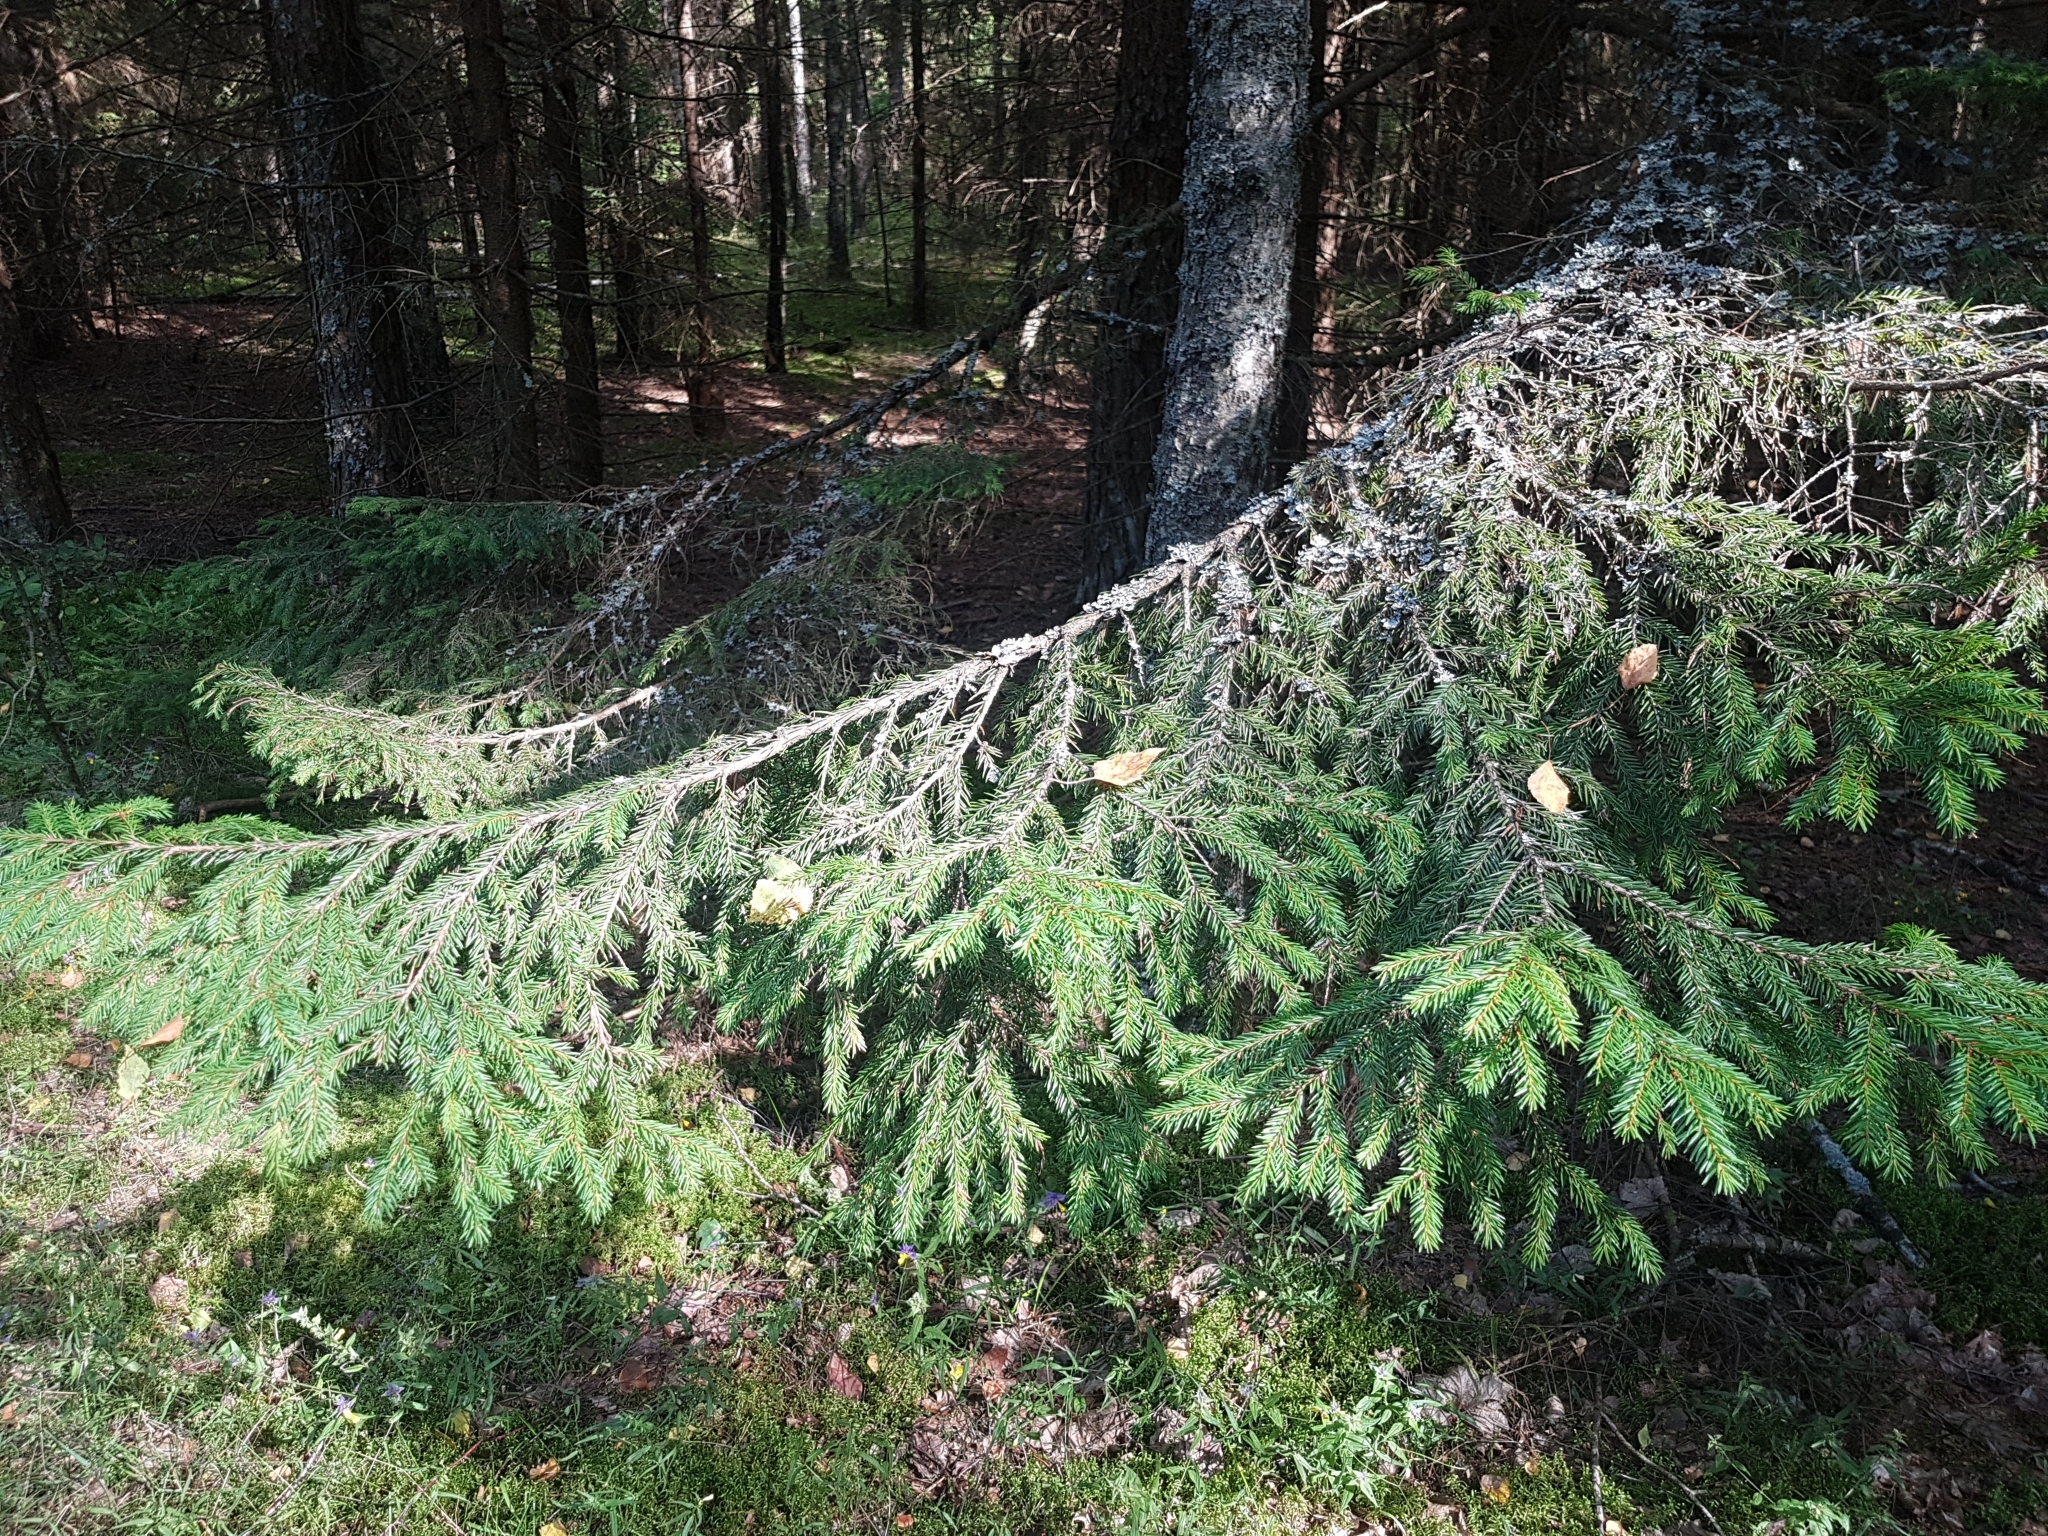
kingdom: Plantae
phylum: Tracheophyta
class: Pinopsida
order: Pinales
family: Pinaceae
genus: Picea
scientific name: Picea abies
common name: Norway spruce
